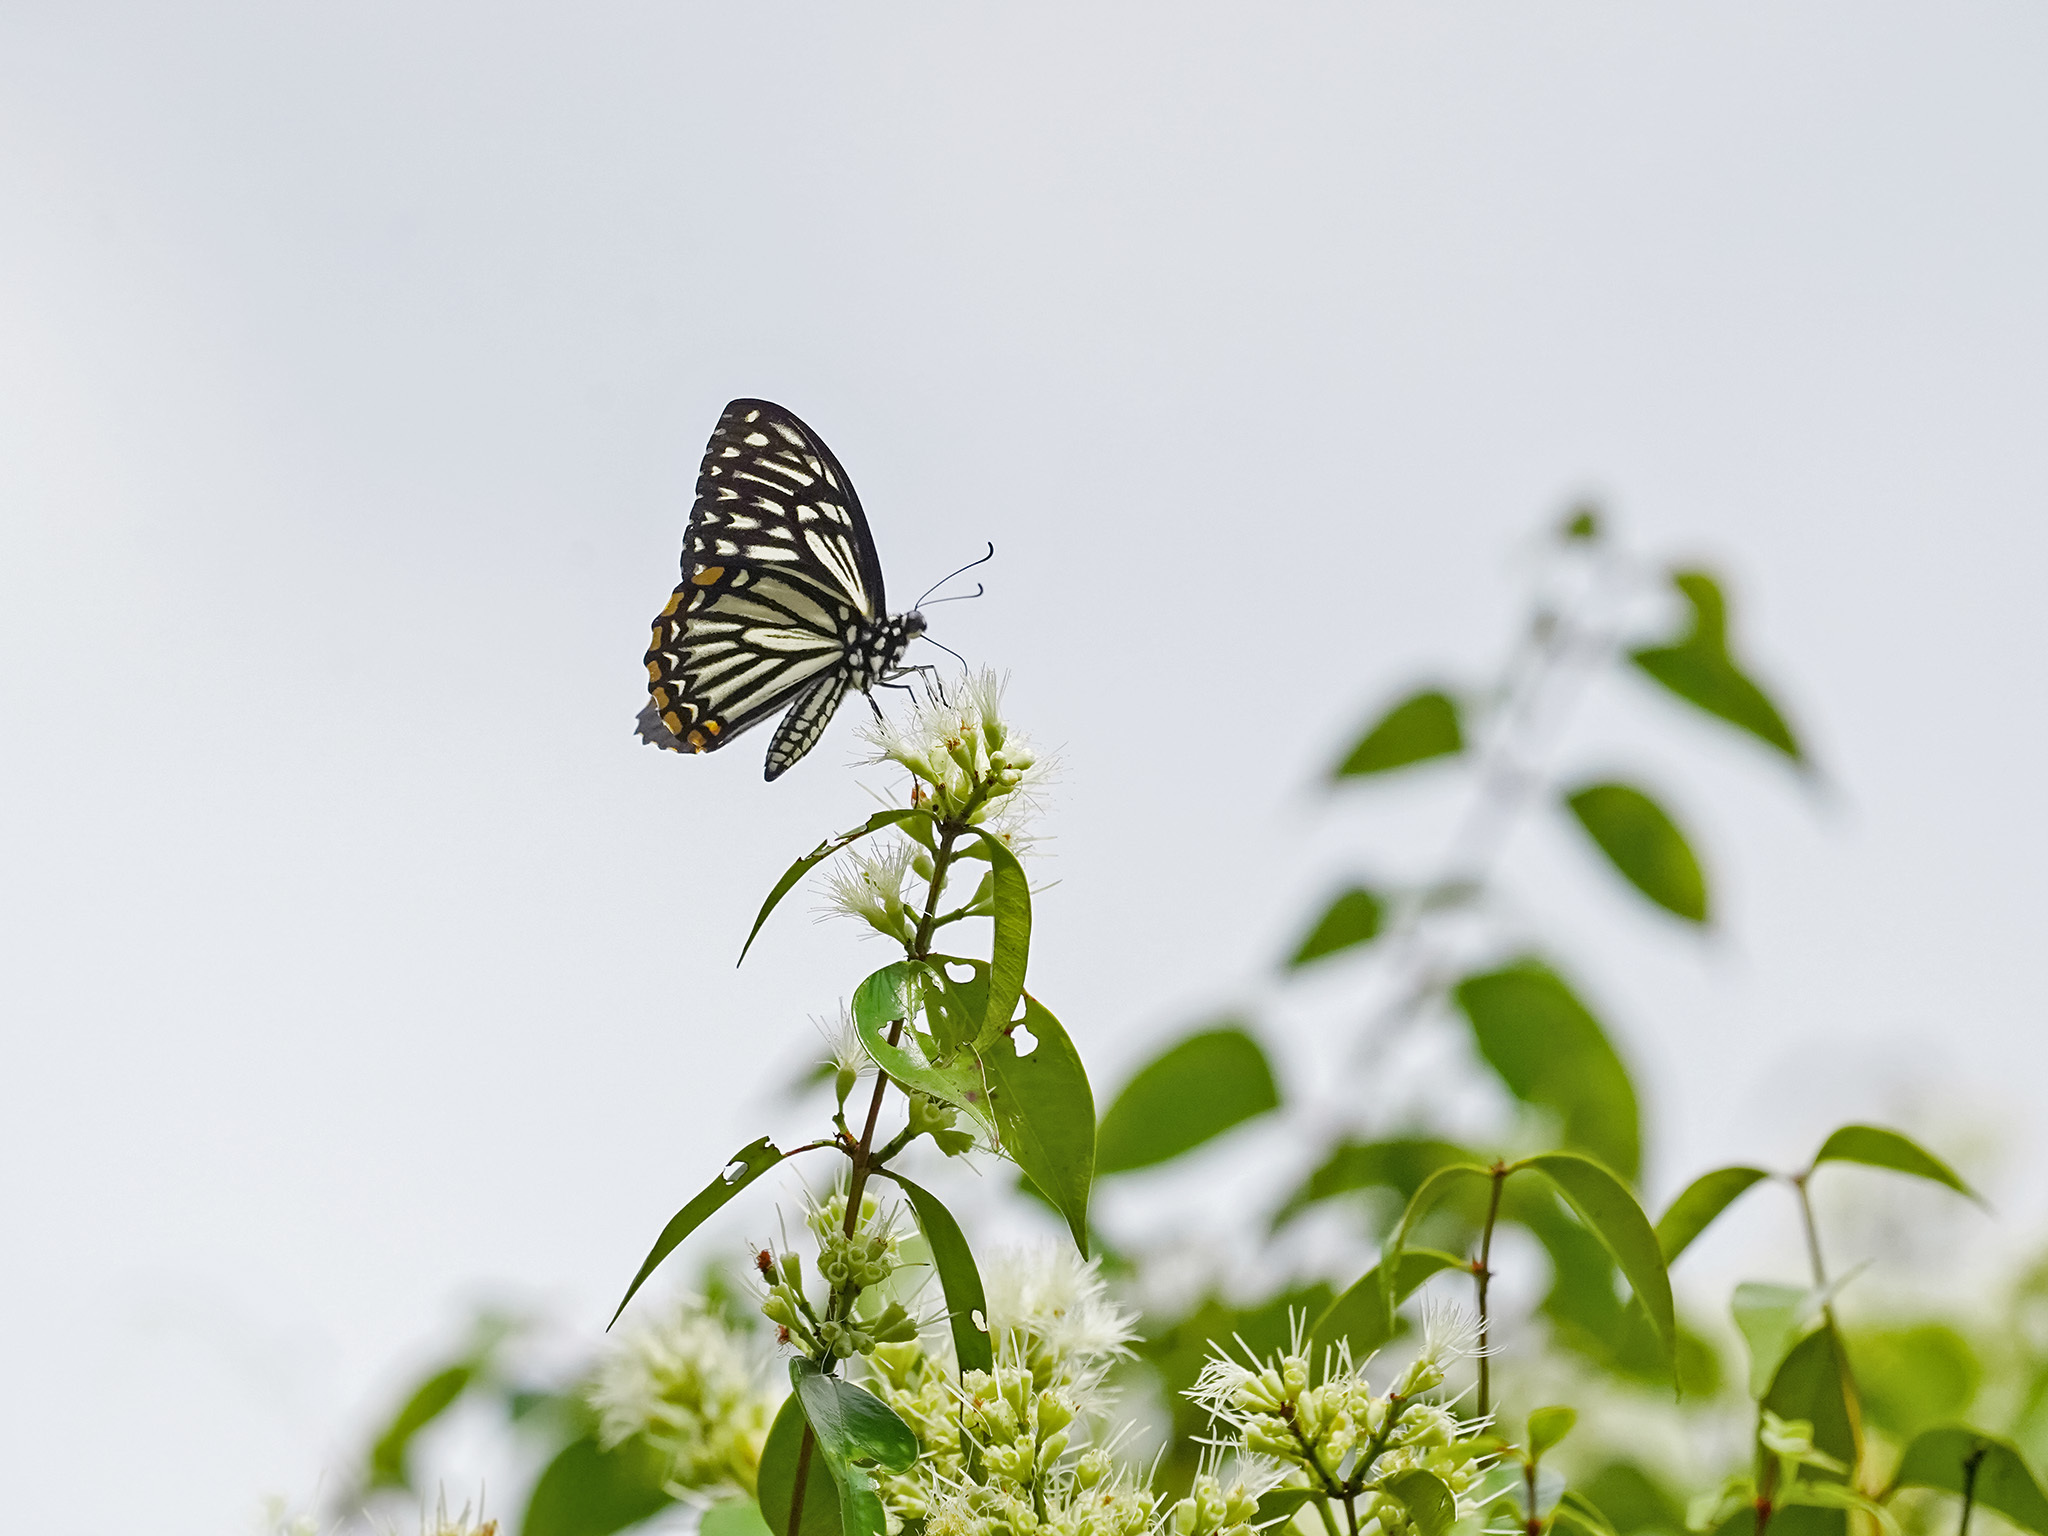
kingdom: Animalia
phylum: Arthropoda
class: Insecta
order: Lepidoptera
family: Papilionidae
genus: Chilasa
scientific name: Chilasa clytia
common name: Common mime
